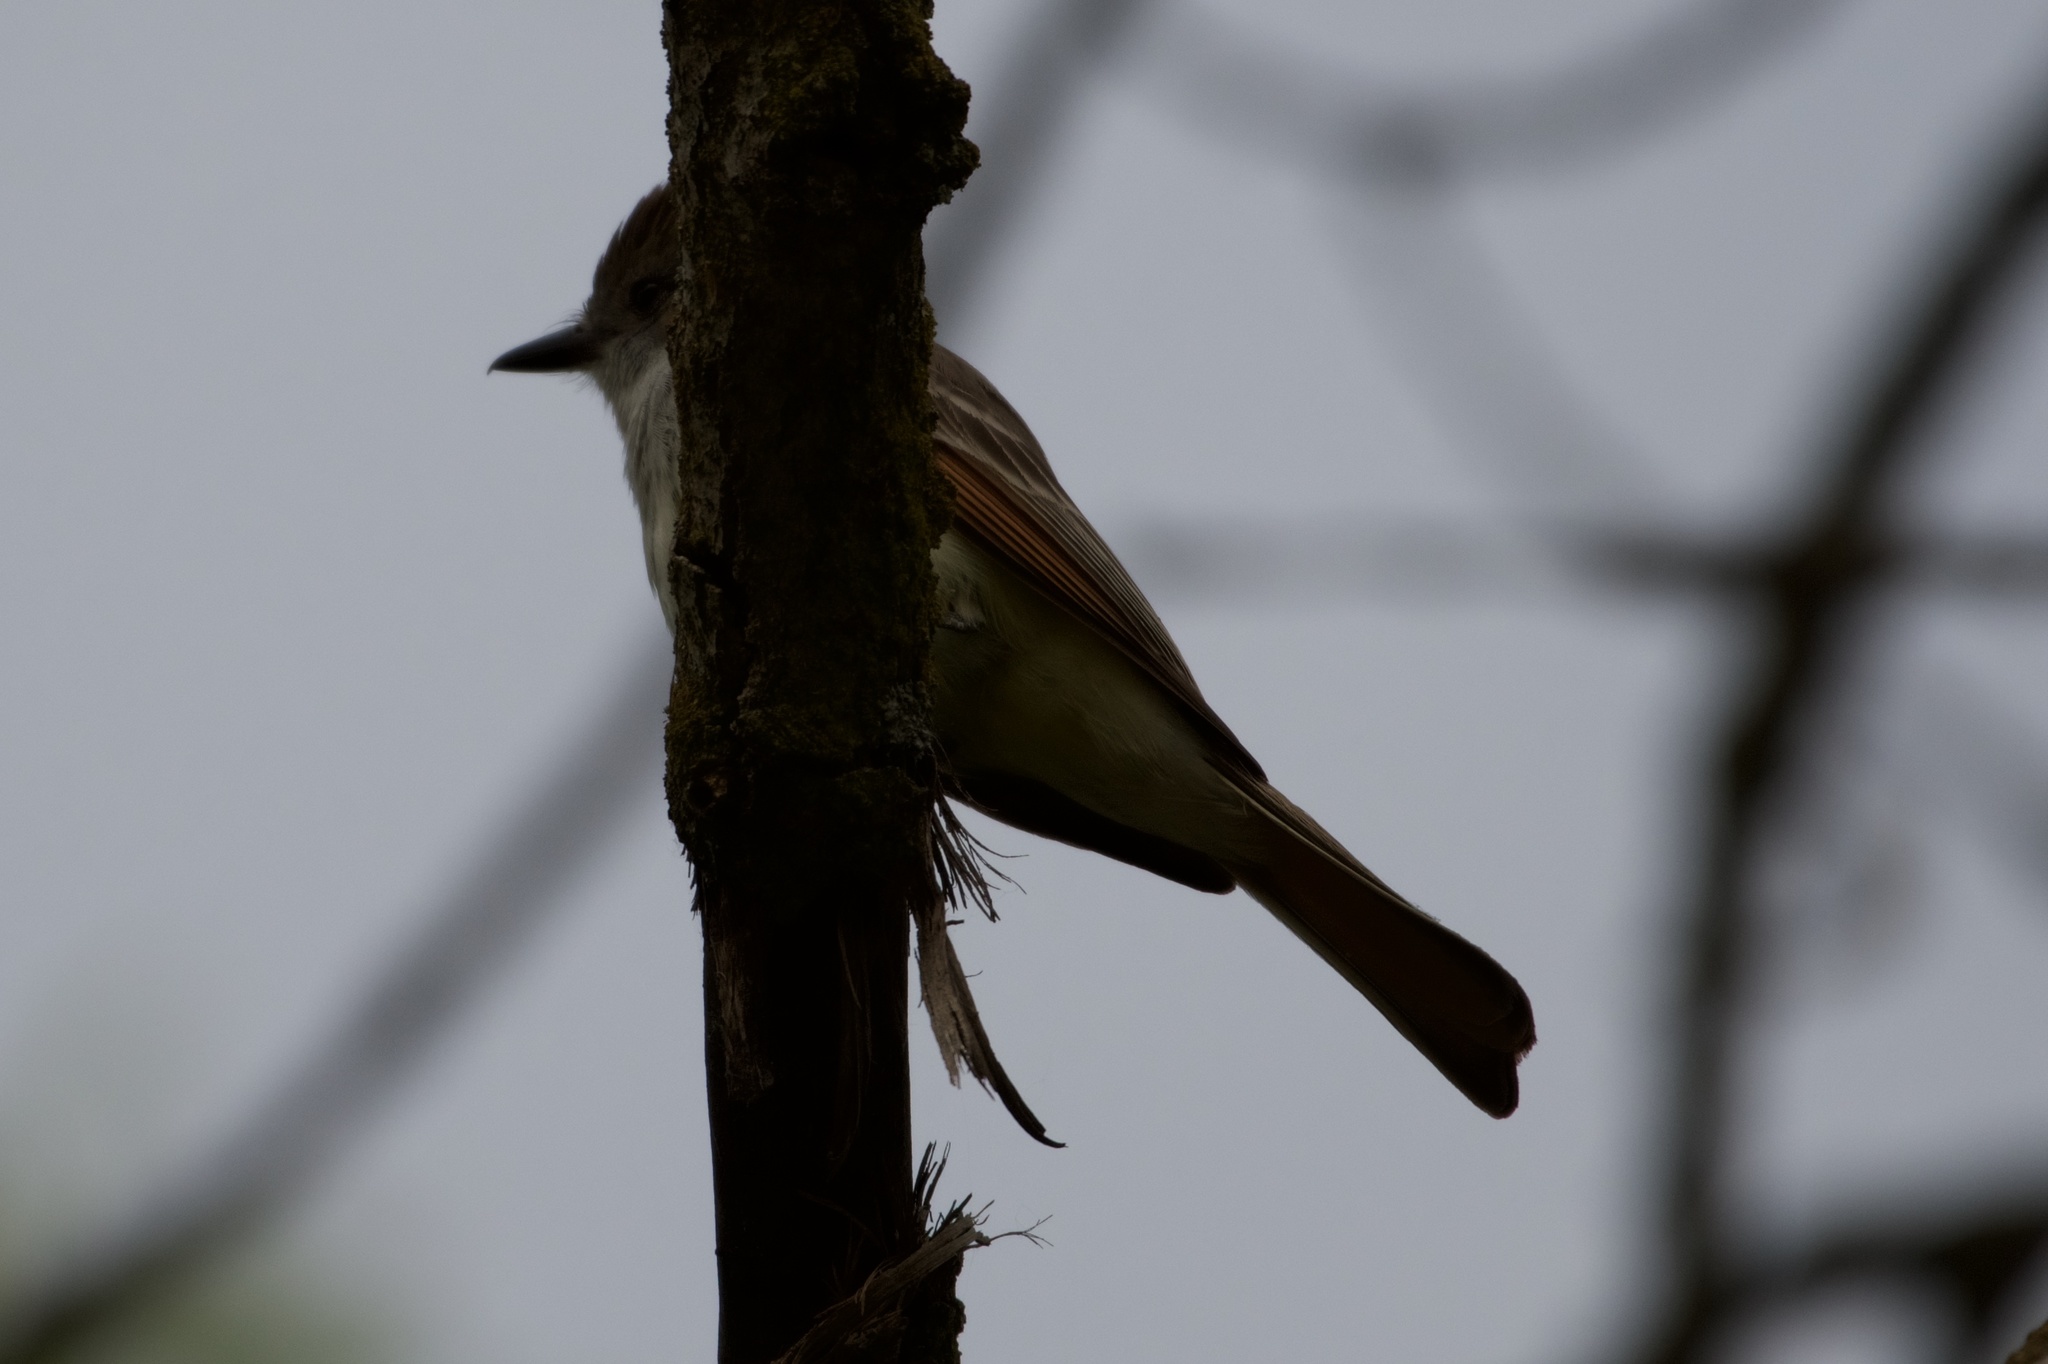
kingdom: Animalia
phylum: Chordata
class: Aves
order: Passeriformes
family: Tyrannidae
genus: Myiarchus
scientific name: Myiarchus cinerascens
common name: Ash-throated flycatcher
